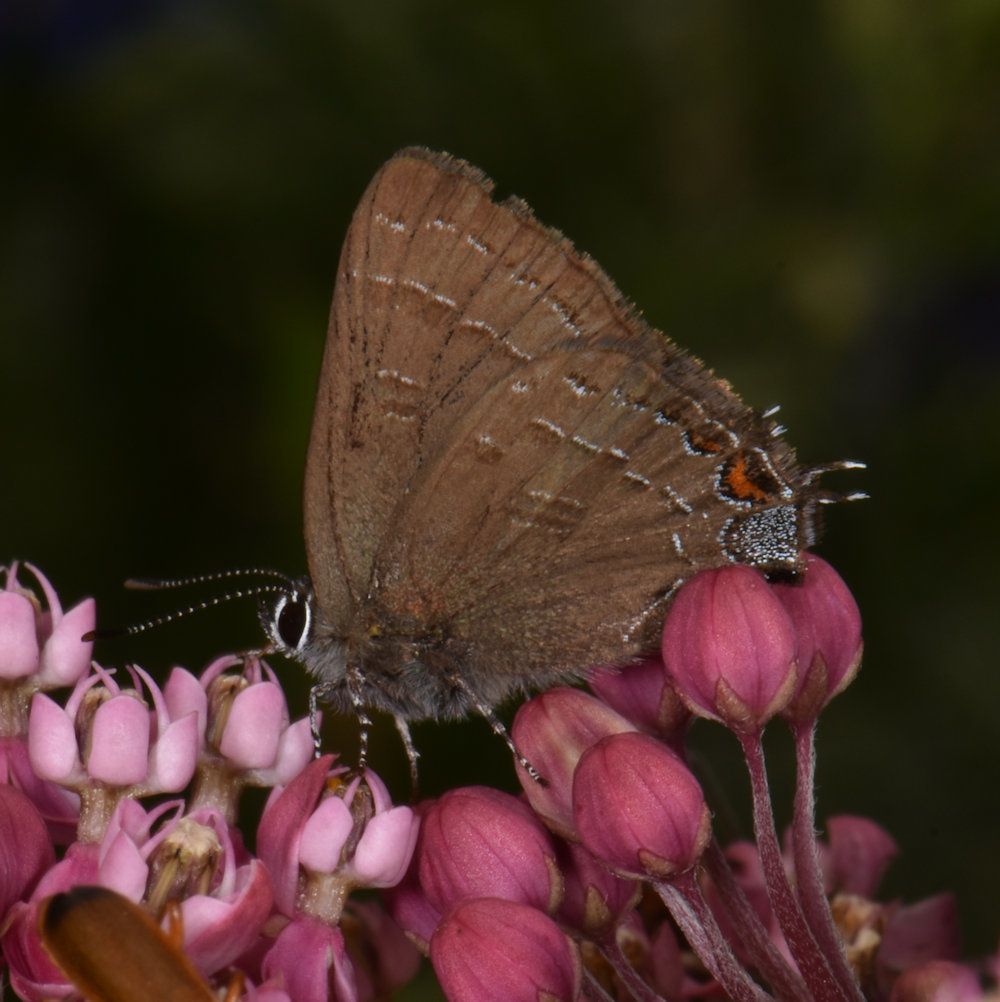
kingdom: Animalia
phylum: Arthropoda
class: Insecta
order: Lepidoptera
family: Lycaenidae
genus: Satyrium
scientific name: Satyrium calanus
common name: Banded hairstreak
